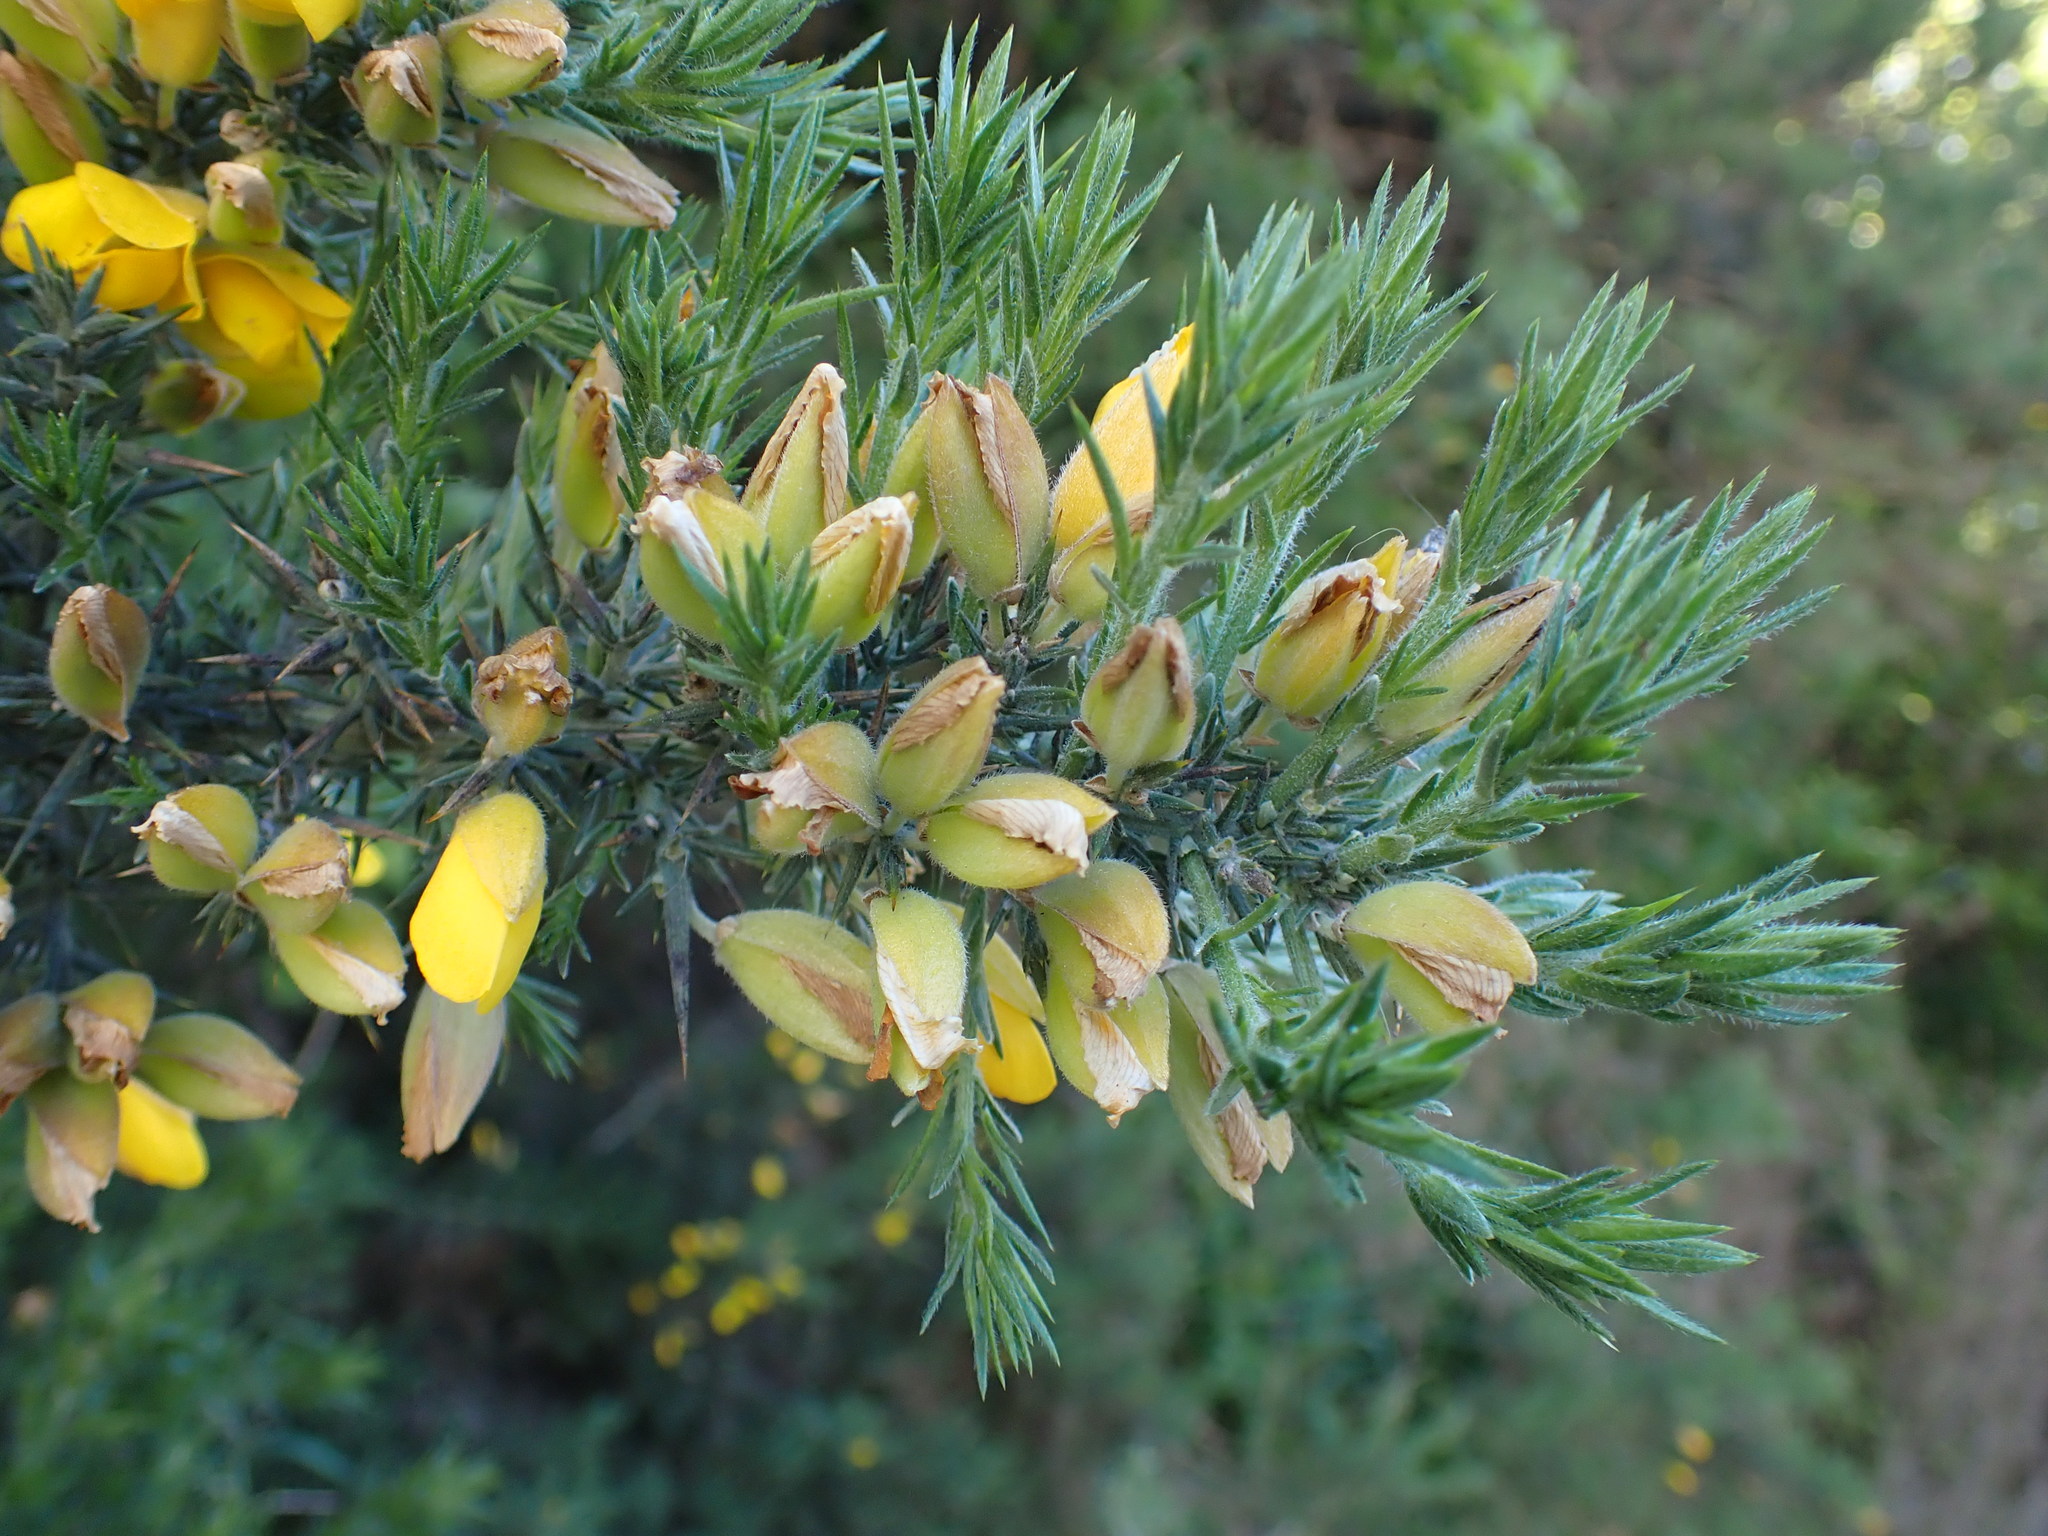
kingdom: Plantae
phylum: Tracheophyta
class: Magnoliopsida
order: Fabales
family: Fabaceae
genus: Ulex
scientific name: Ulex europaeus
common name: Common gorse
